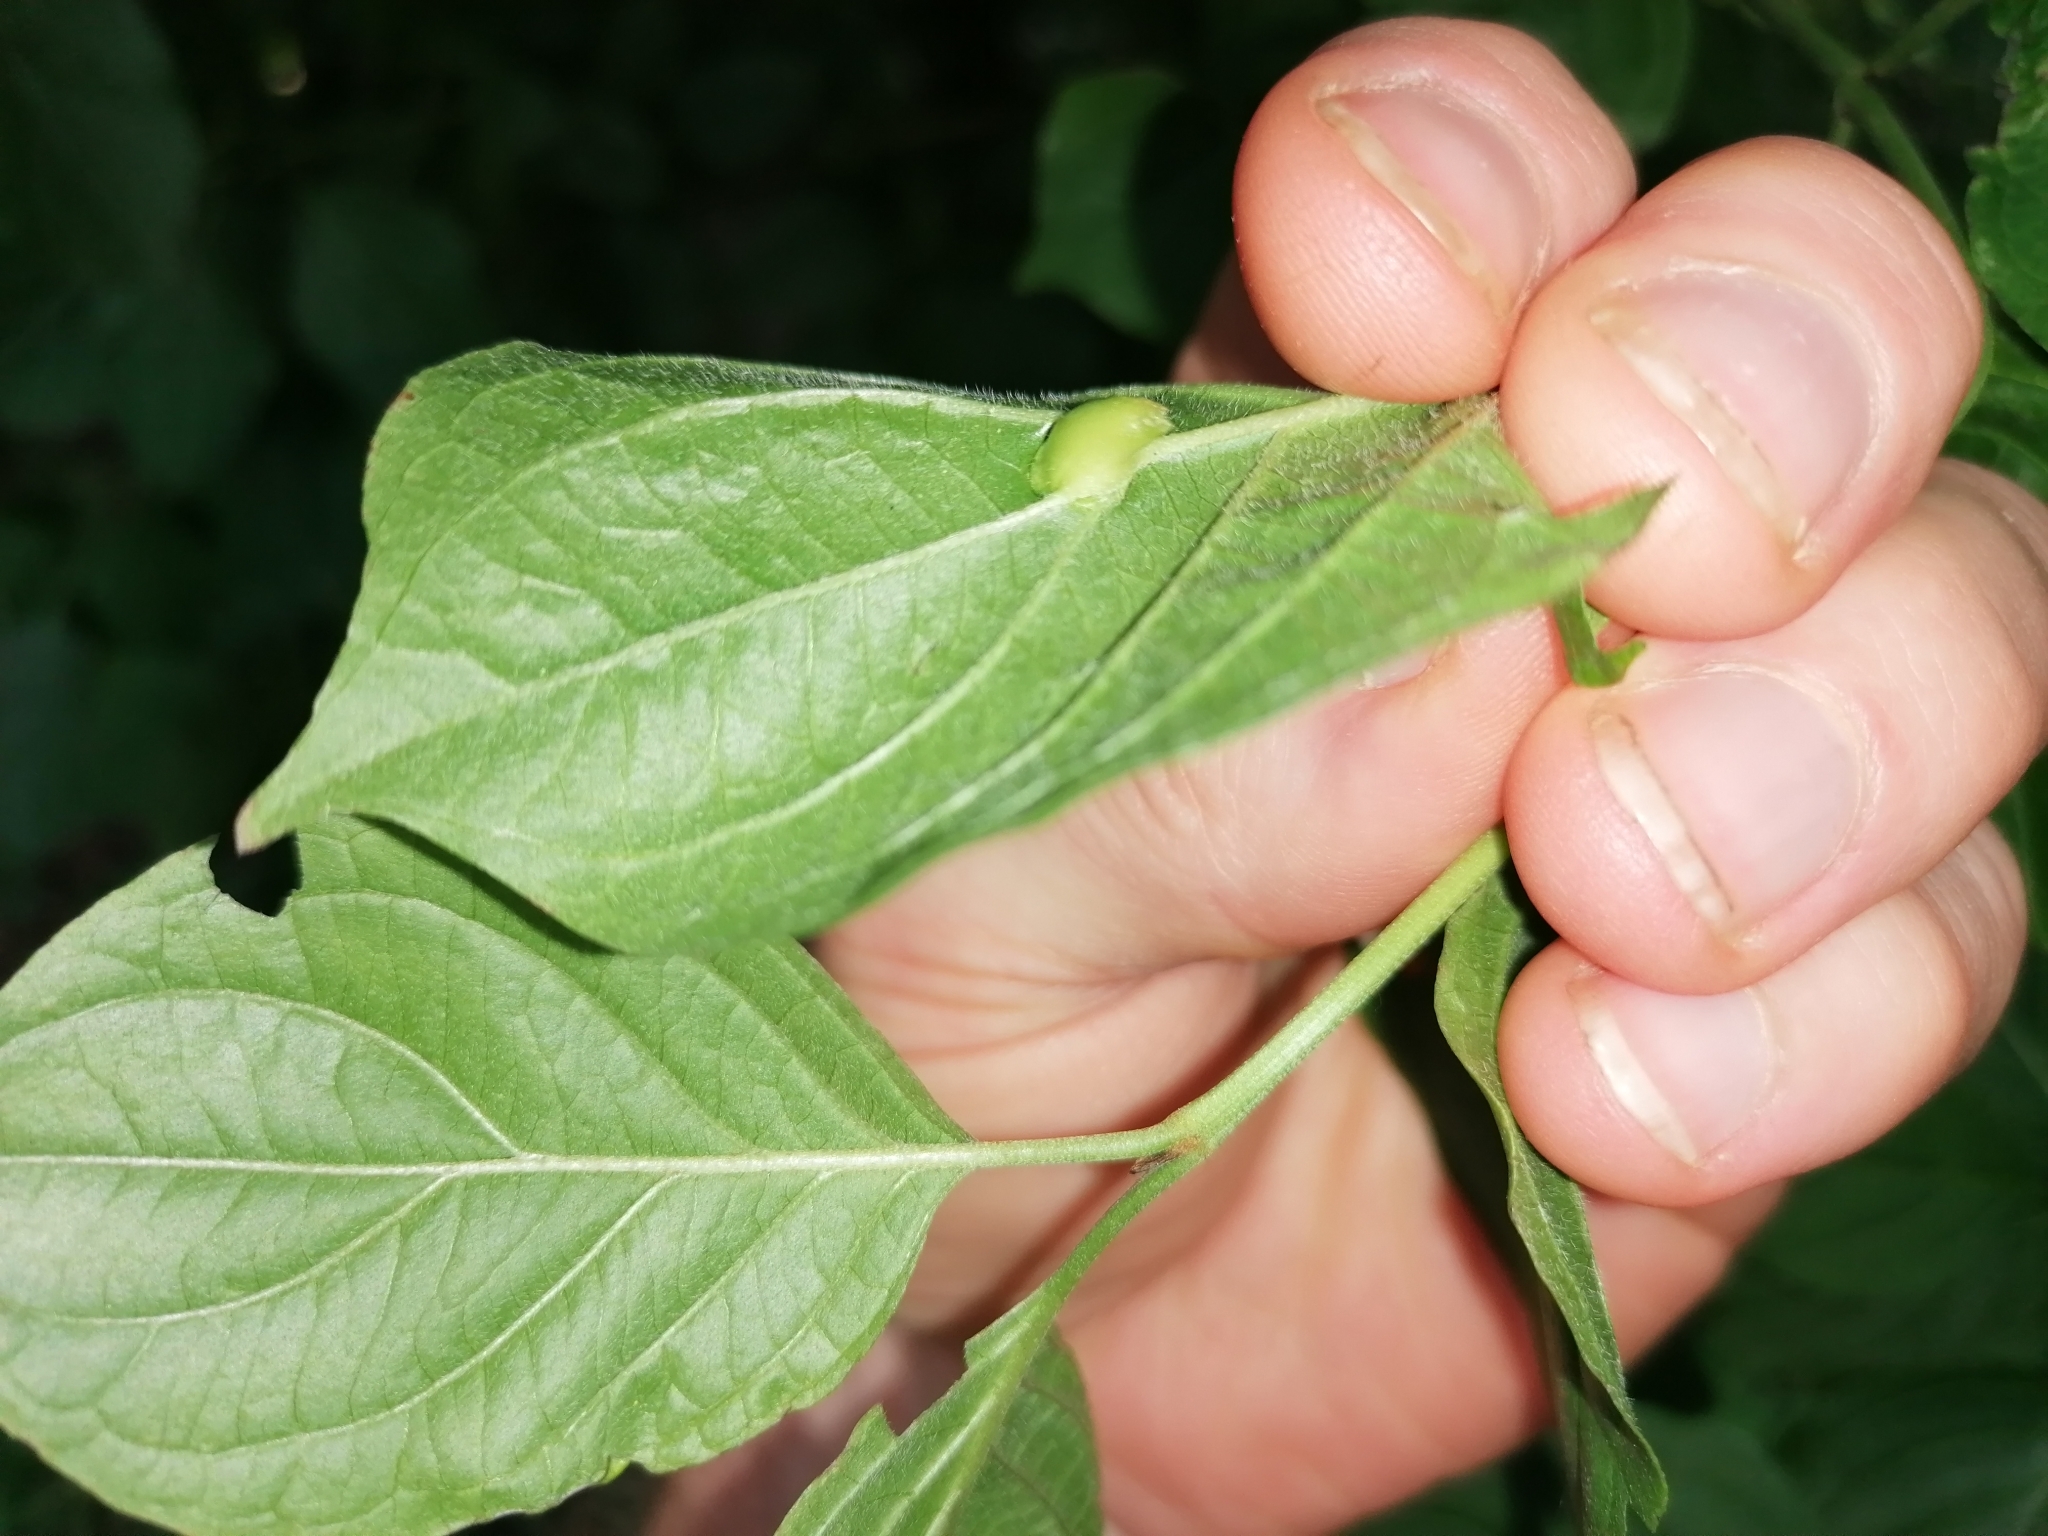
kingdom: Animalia
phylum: Arthropoda
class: Insecta
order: Diptera
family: Cecidomyiidae
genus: Craneiobia
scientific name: Craneiobia corni
